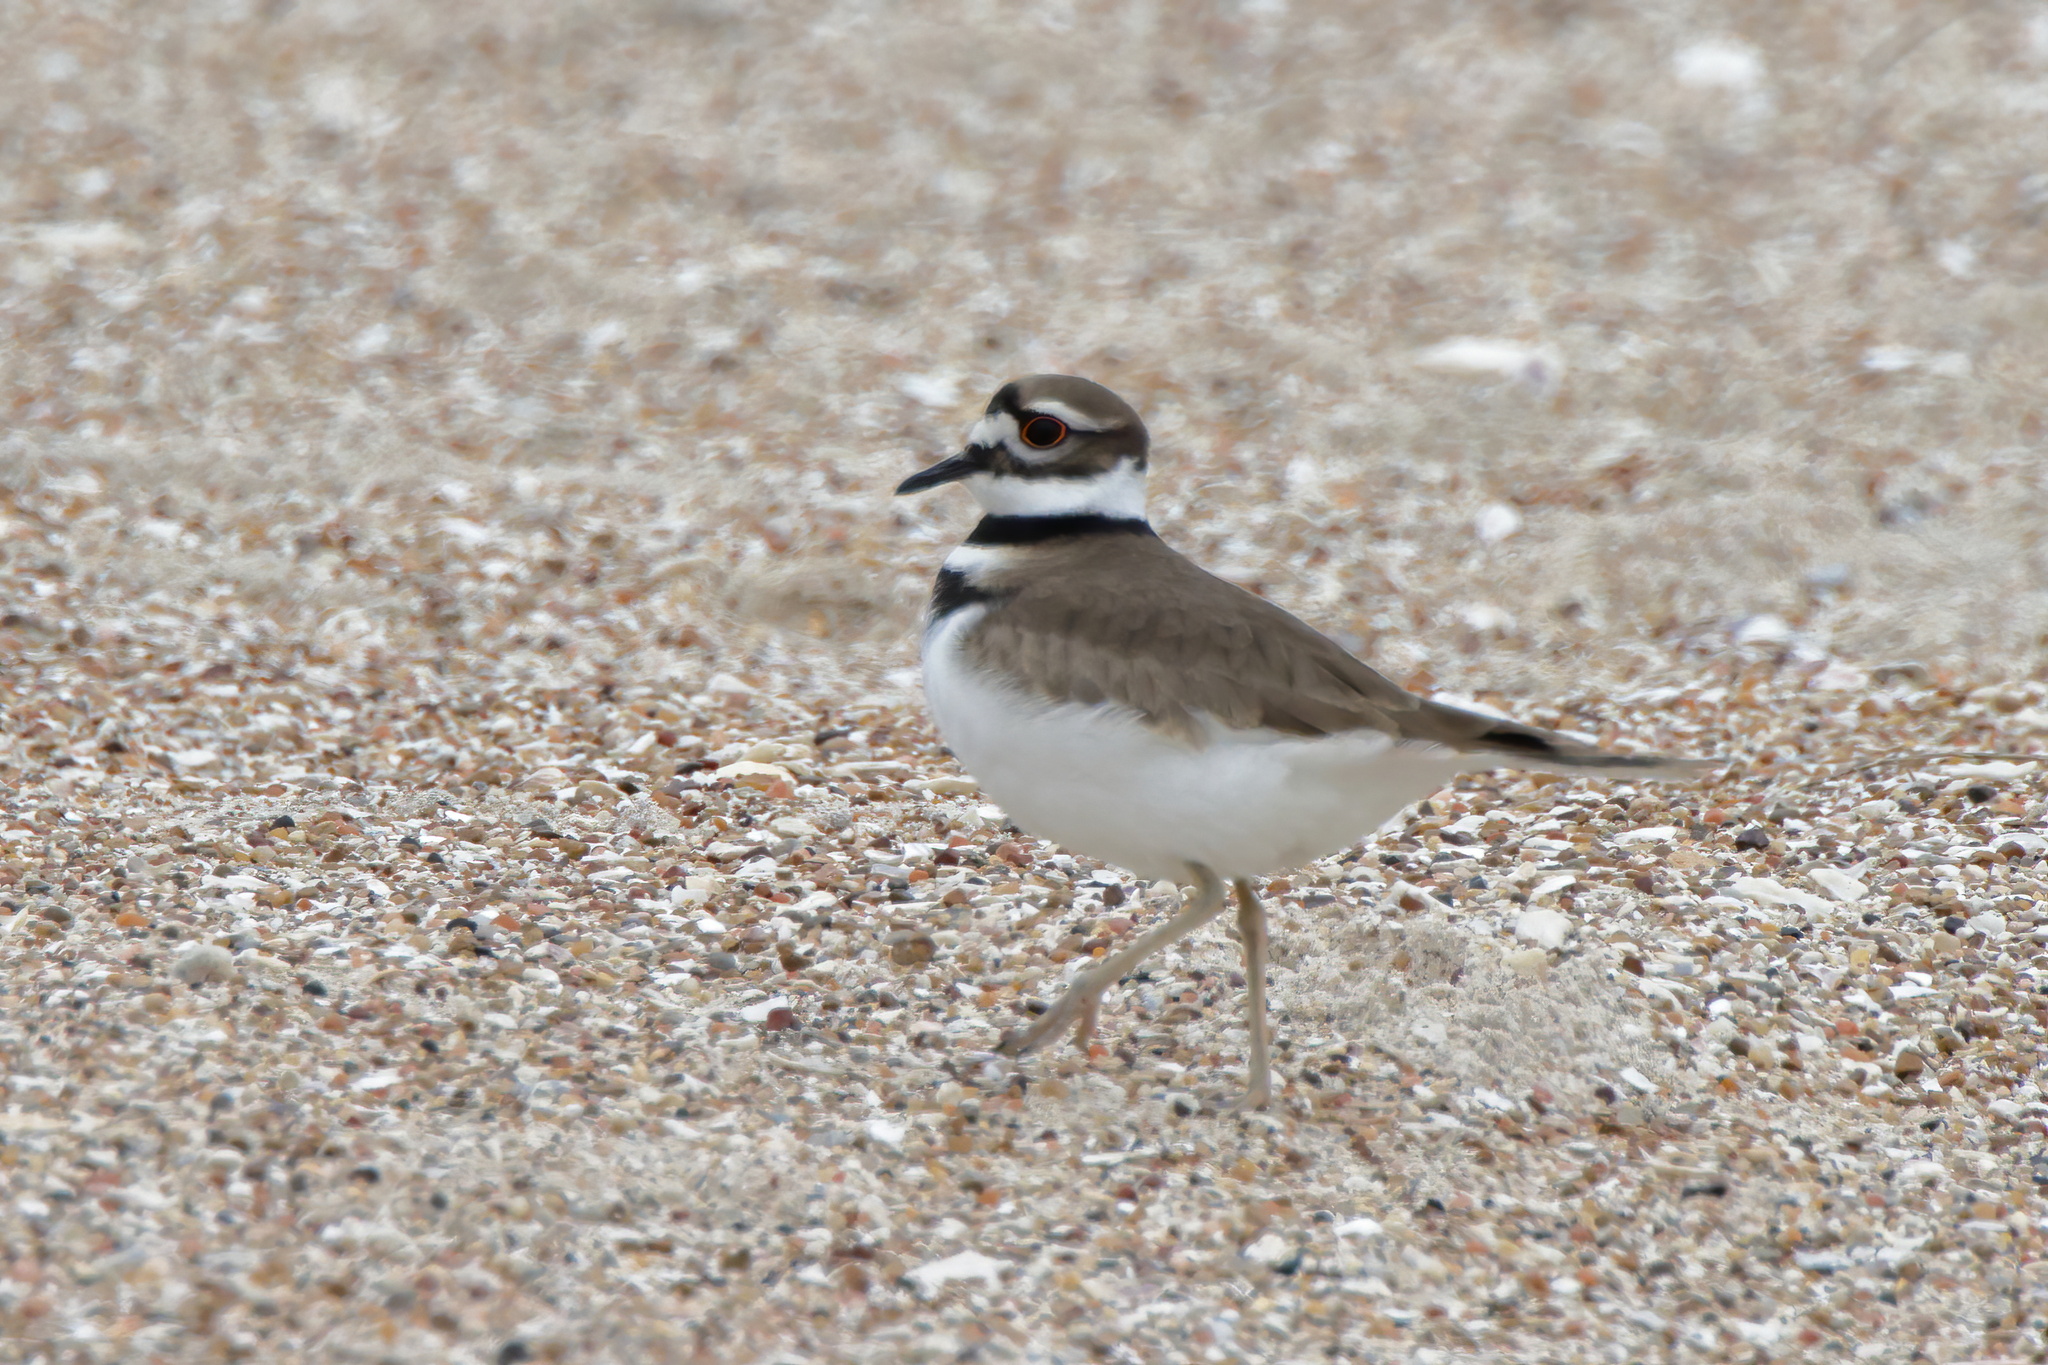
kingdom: Animalia
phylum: Chordata
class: Aves
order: Charadriiformes
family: Charadriidae
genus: Charadrius
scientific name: Charadrius vociferus
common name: Killdeer
